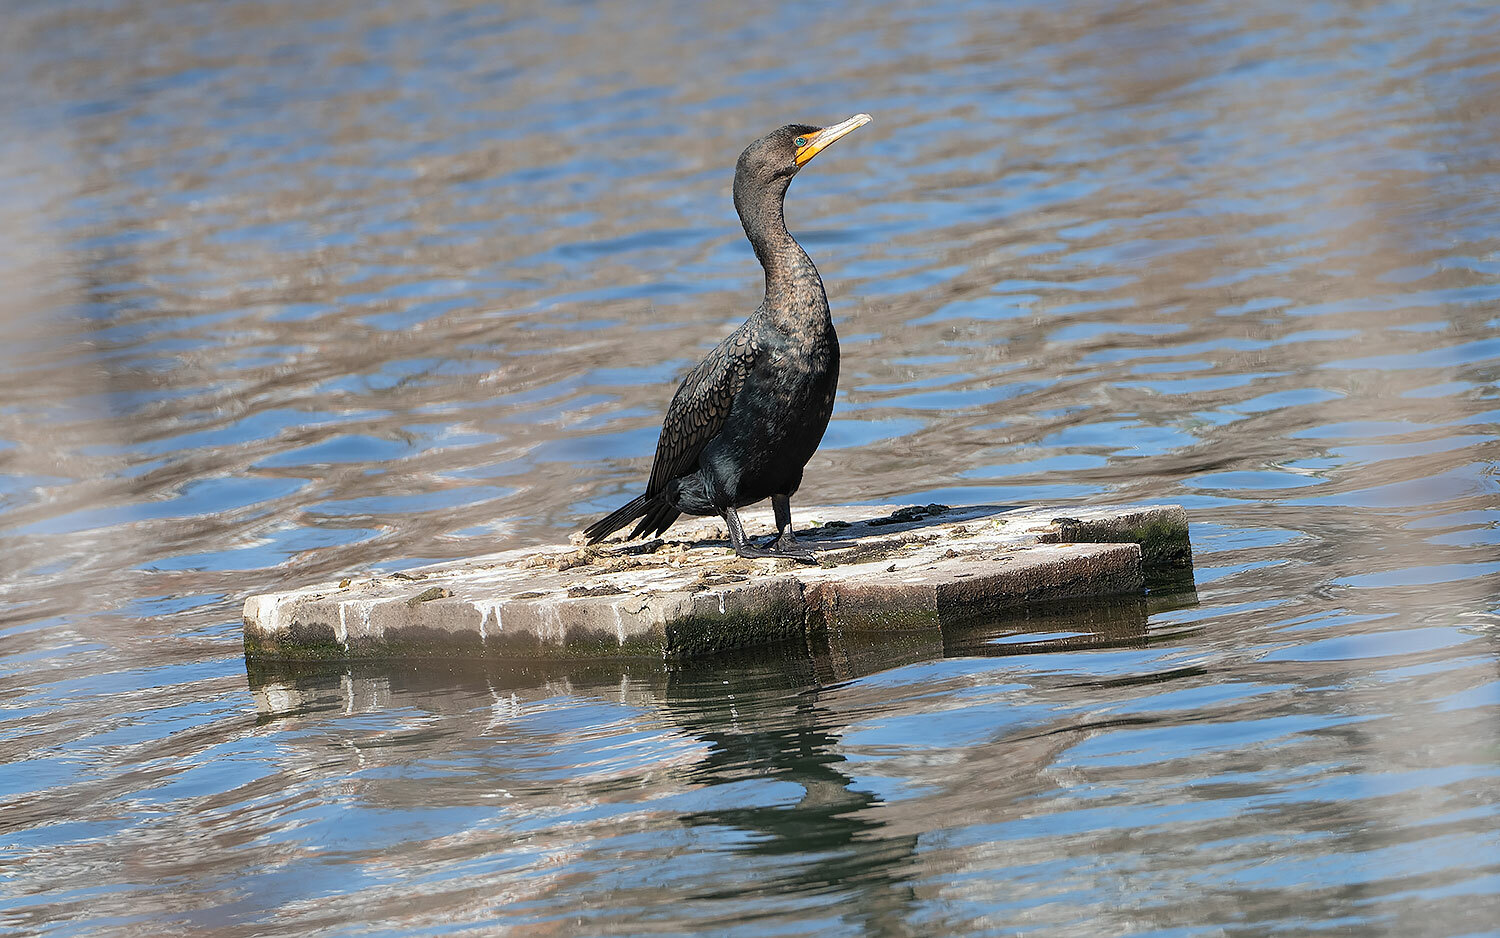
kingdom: Animalia
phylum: Chordata
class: Aves
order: Suliformes
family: Phalacrocoracidae
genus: Phalacrocorax
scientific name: Phalacrocorax auritus
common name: Double-crested cormorant
